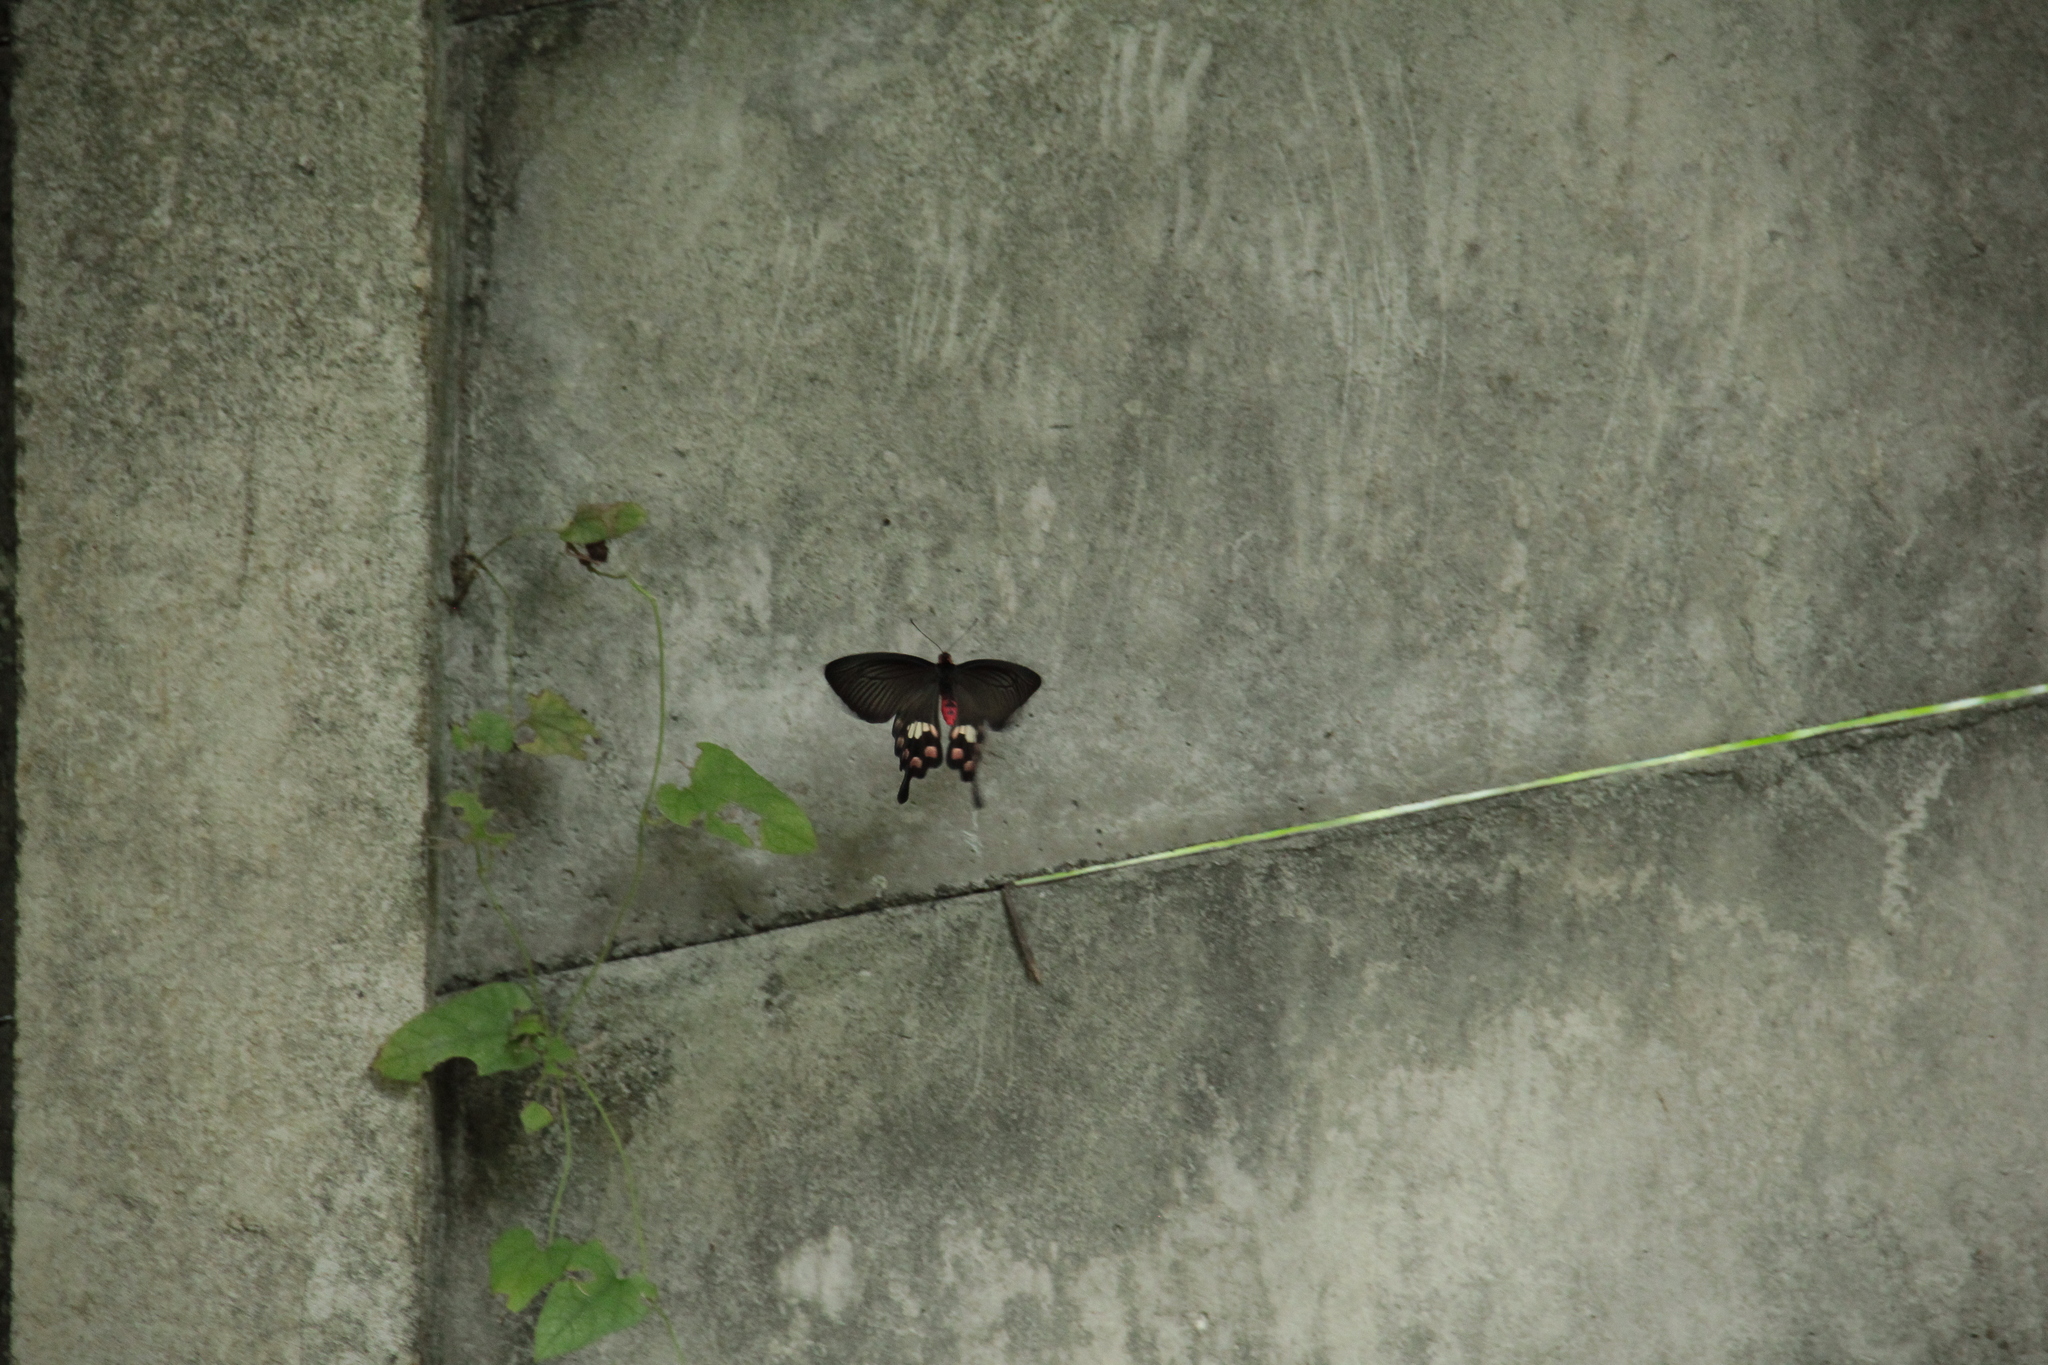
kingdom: Animalia
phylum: Arthropoda
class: Insecta
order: Lepidoptera
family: Papilionidae
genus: Pachliopta
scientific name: Pachliopta aristolochiae
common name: Common rose
